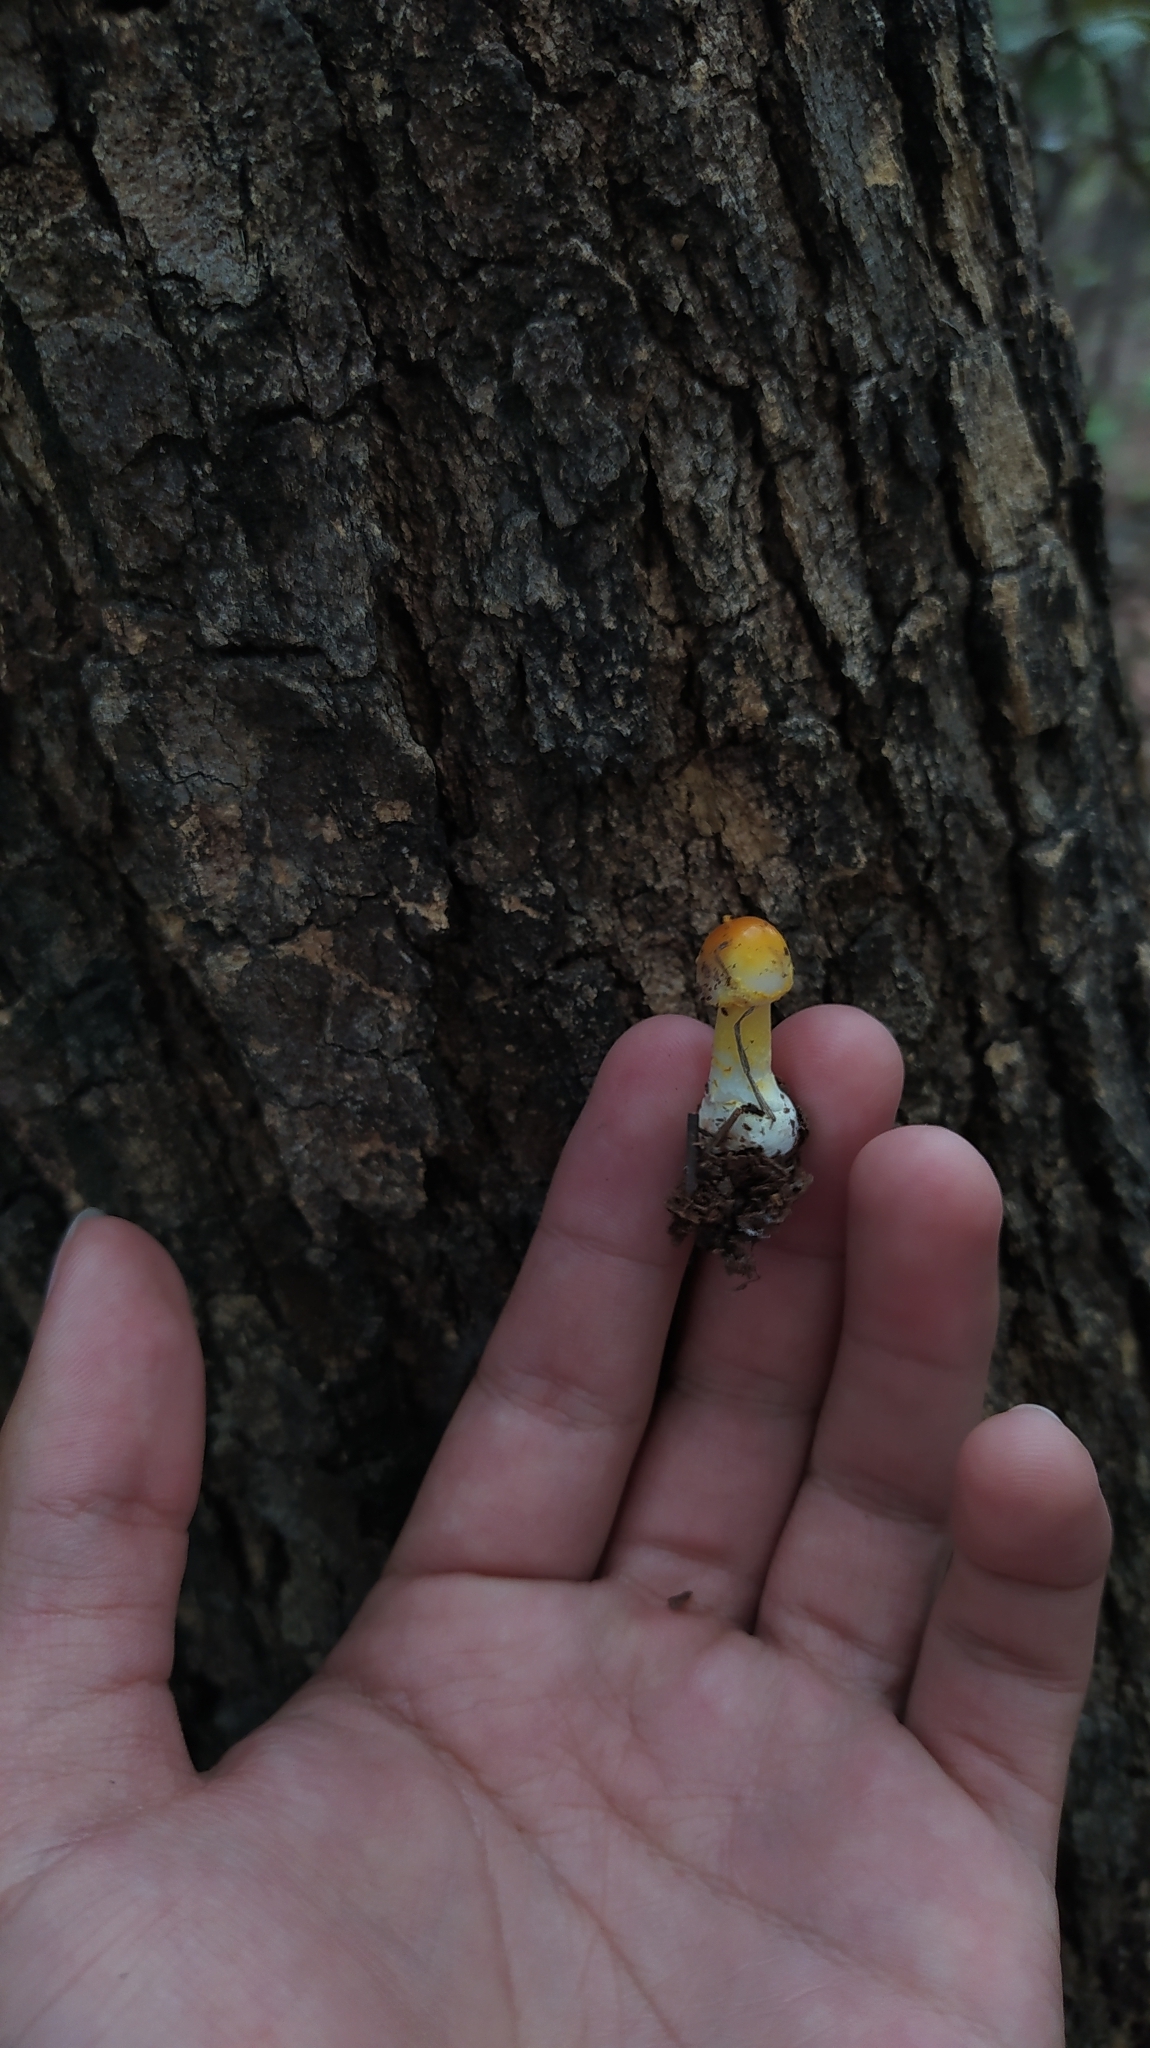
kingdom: Fungi
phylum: Basidiomycota
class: Agaricomycetes
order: Agaricales
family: Amanitaceae
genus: Amanita
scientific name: Amanita flavoconia
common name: Yellow patches
